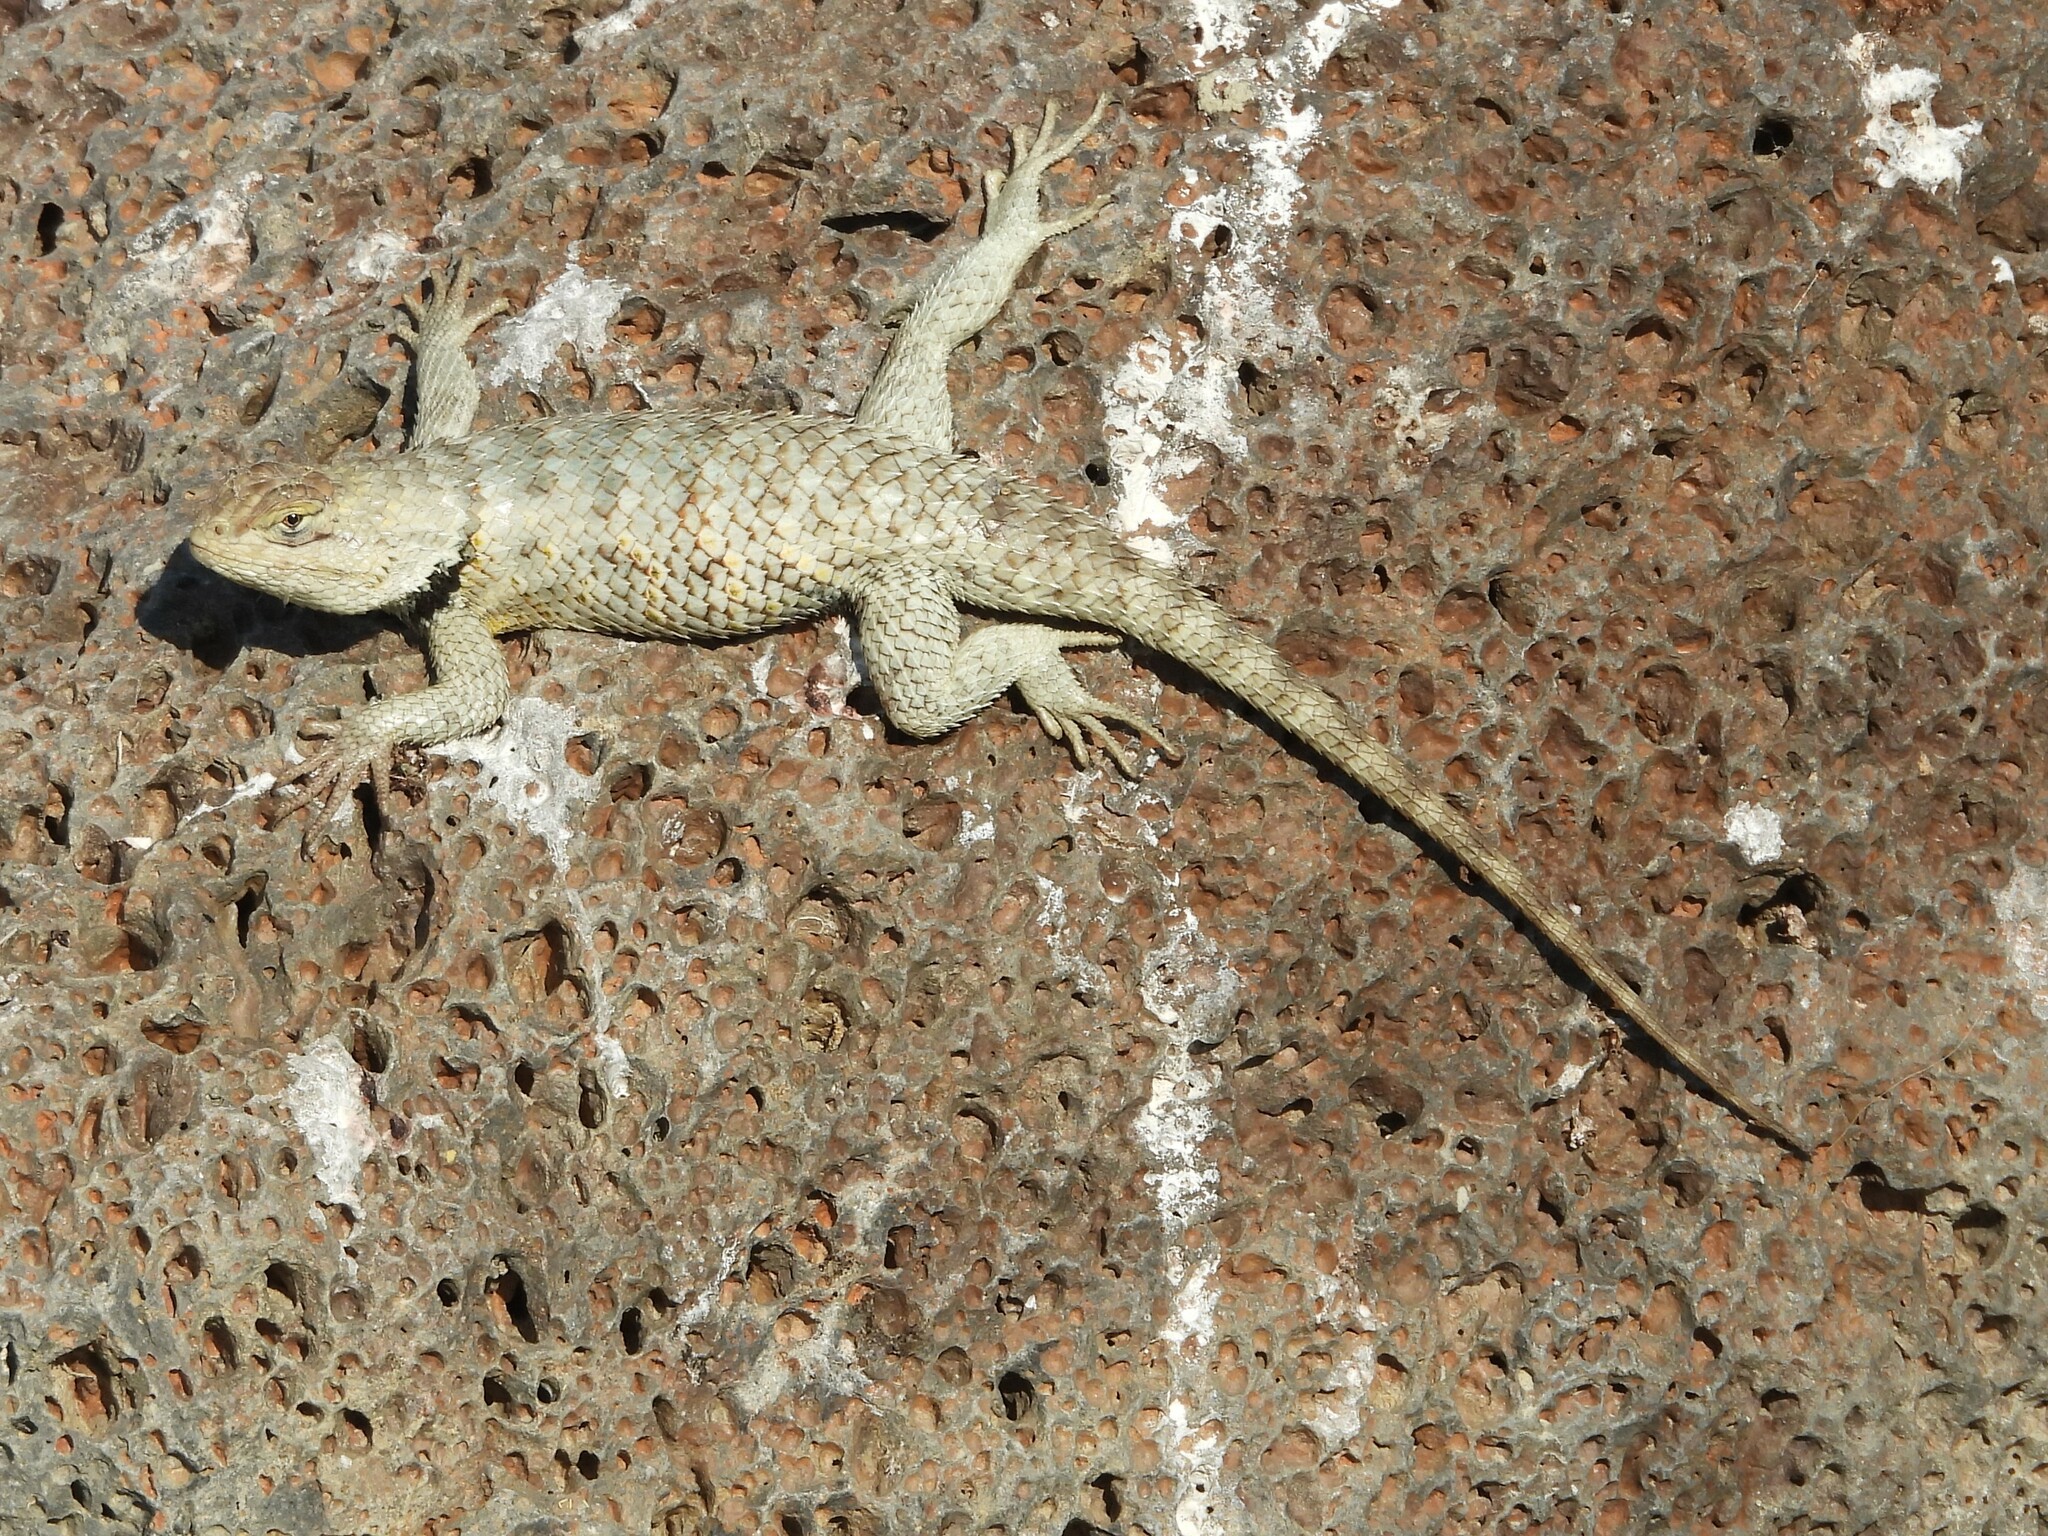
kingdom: Animalia
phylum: Chordata
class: Squamata
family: Phrynosomatidae
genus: Sceloporus
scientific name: Sceloporus uniformis
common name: Yellow-backed spiny lizard
